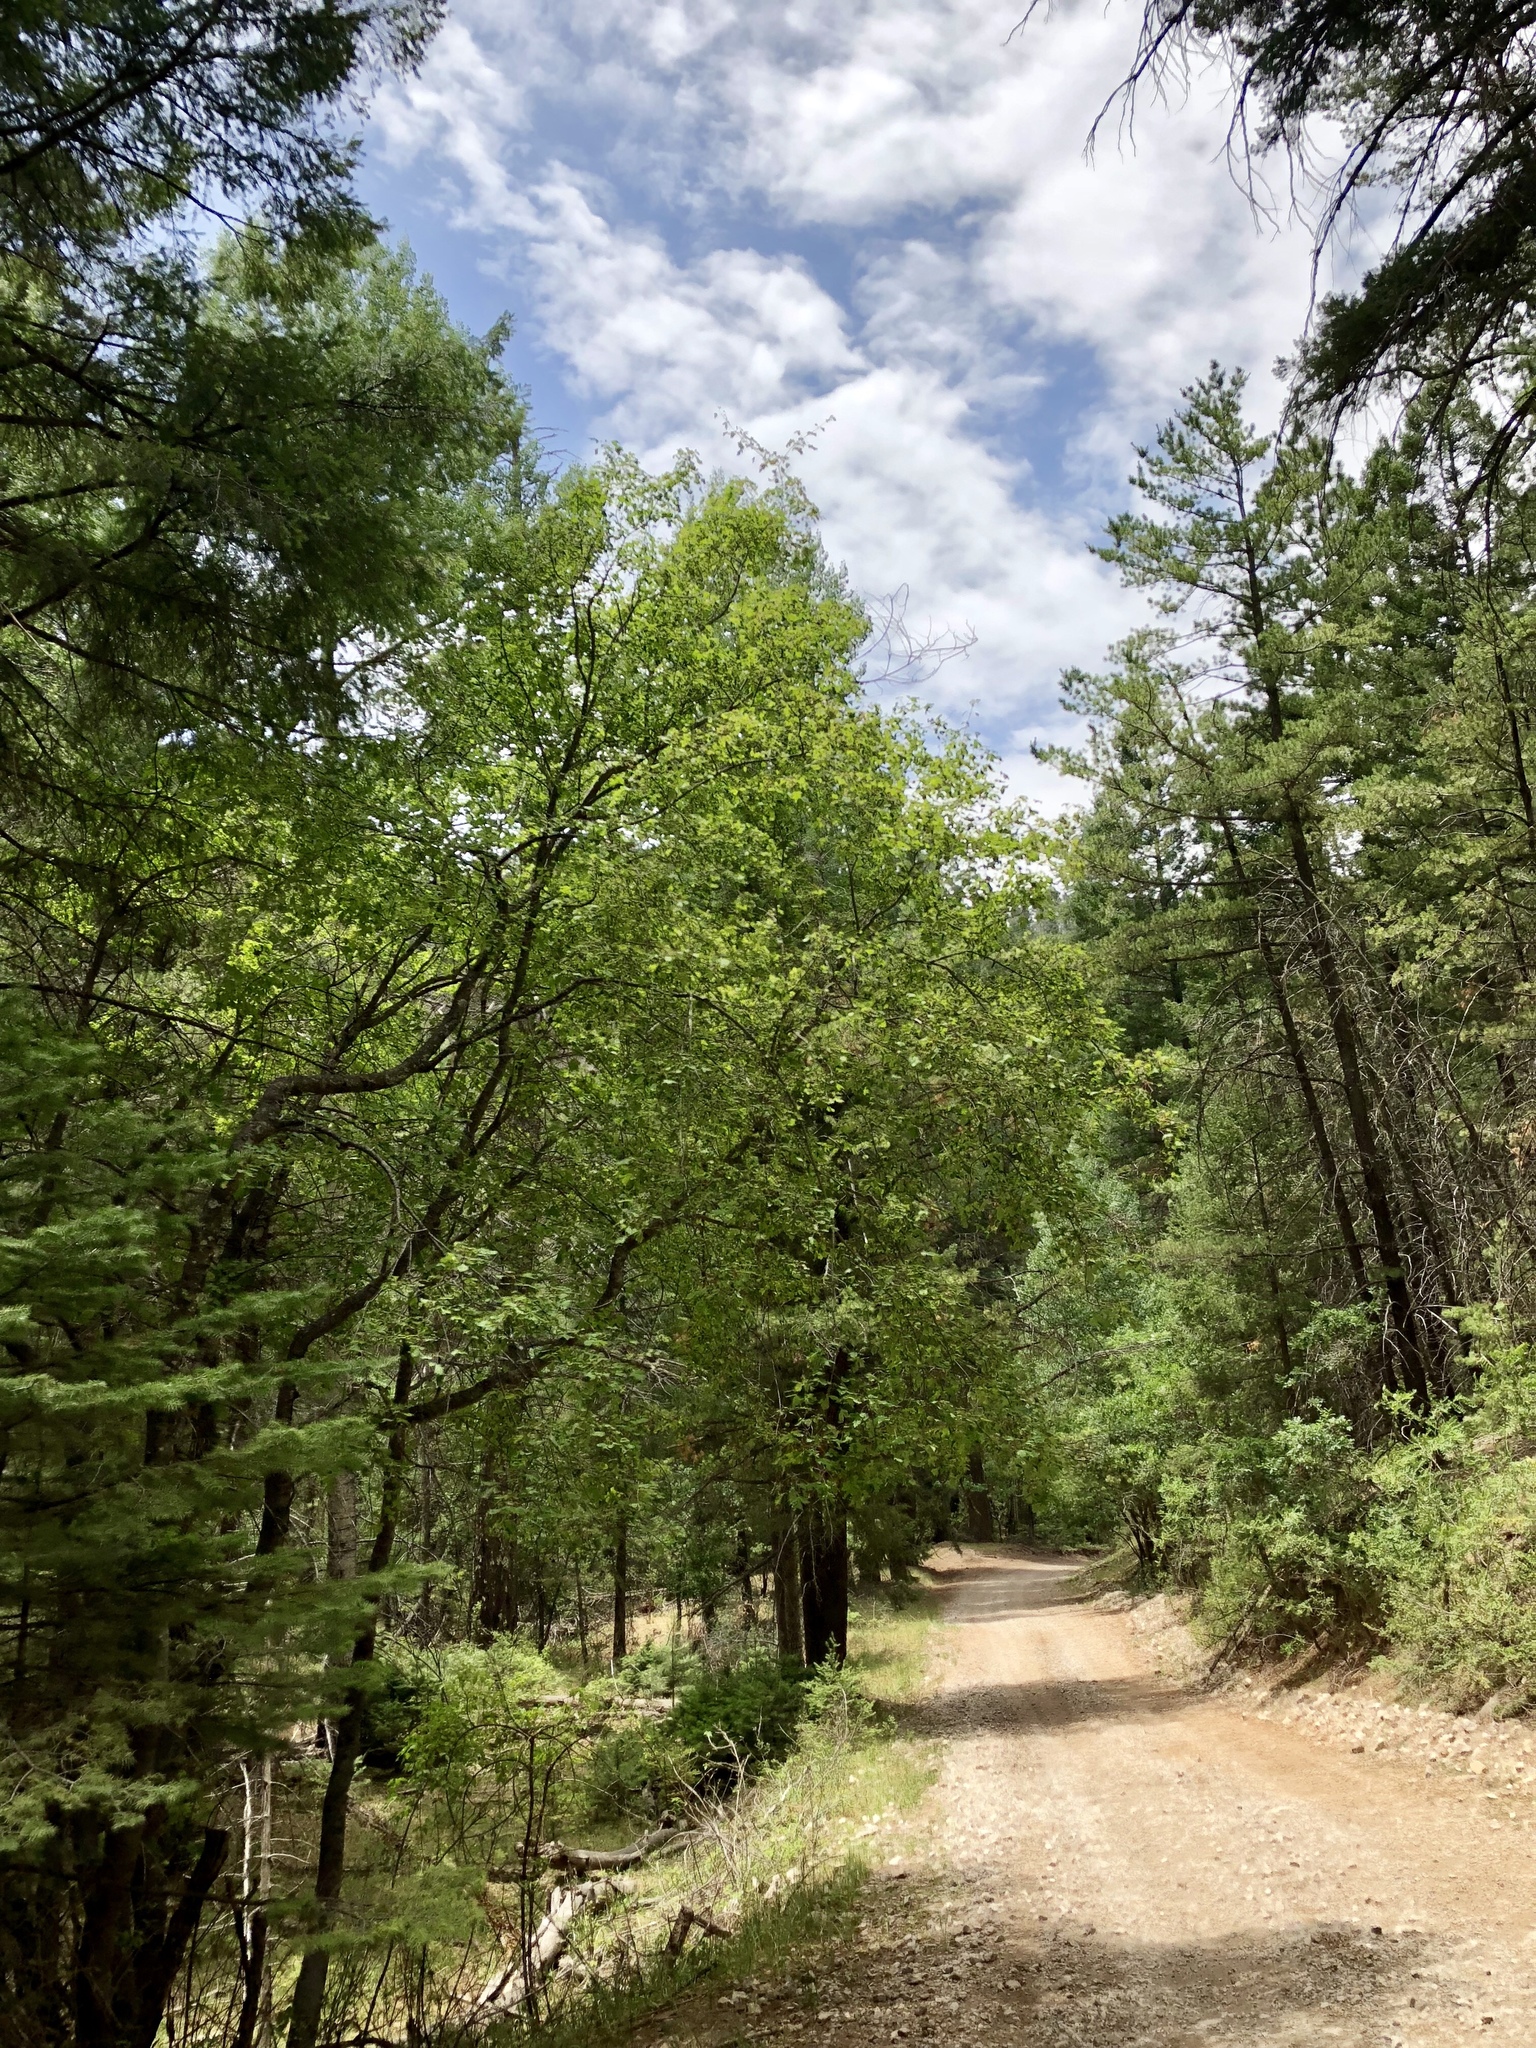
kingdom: Plantae
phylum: Tracheophyta
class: Magnoliopsida
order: Sapindales
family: Sapindaceae
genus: Acer
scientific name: Acer glabrum
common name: Rocky mountain maple
